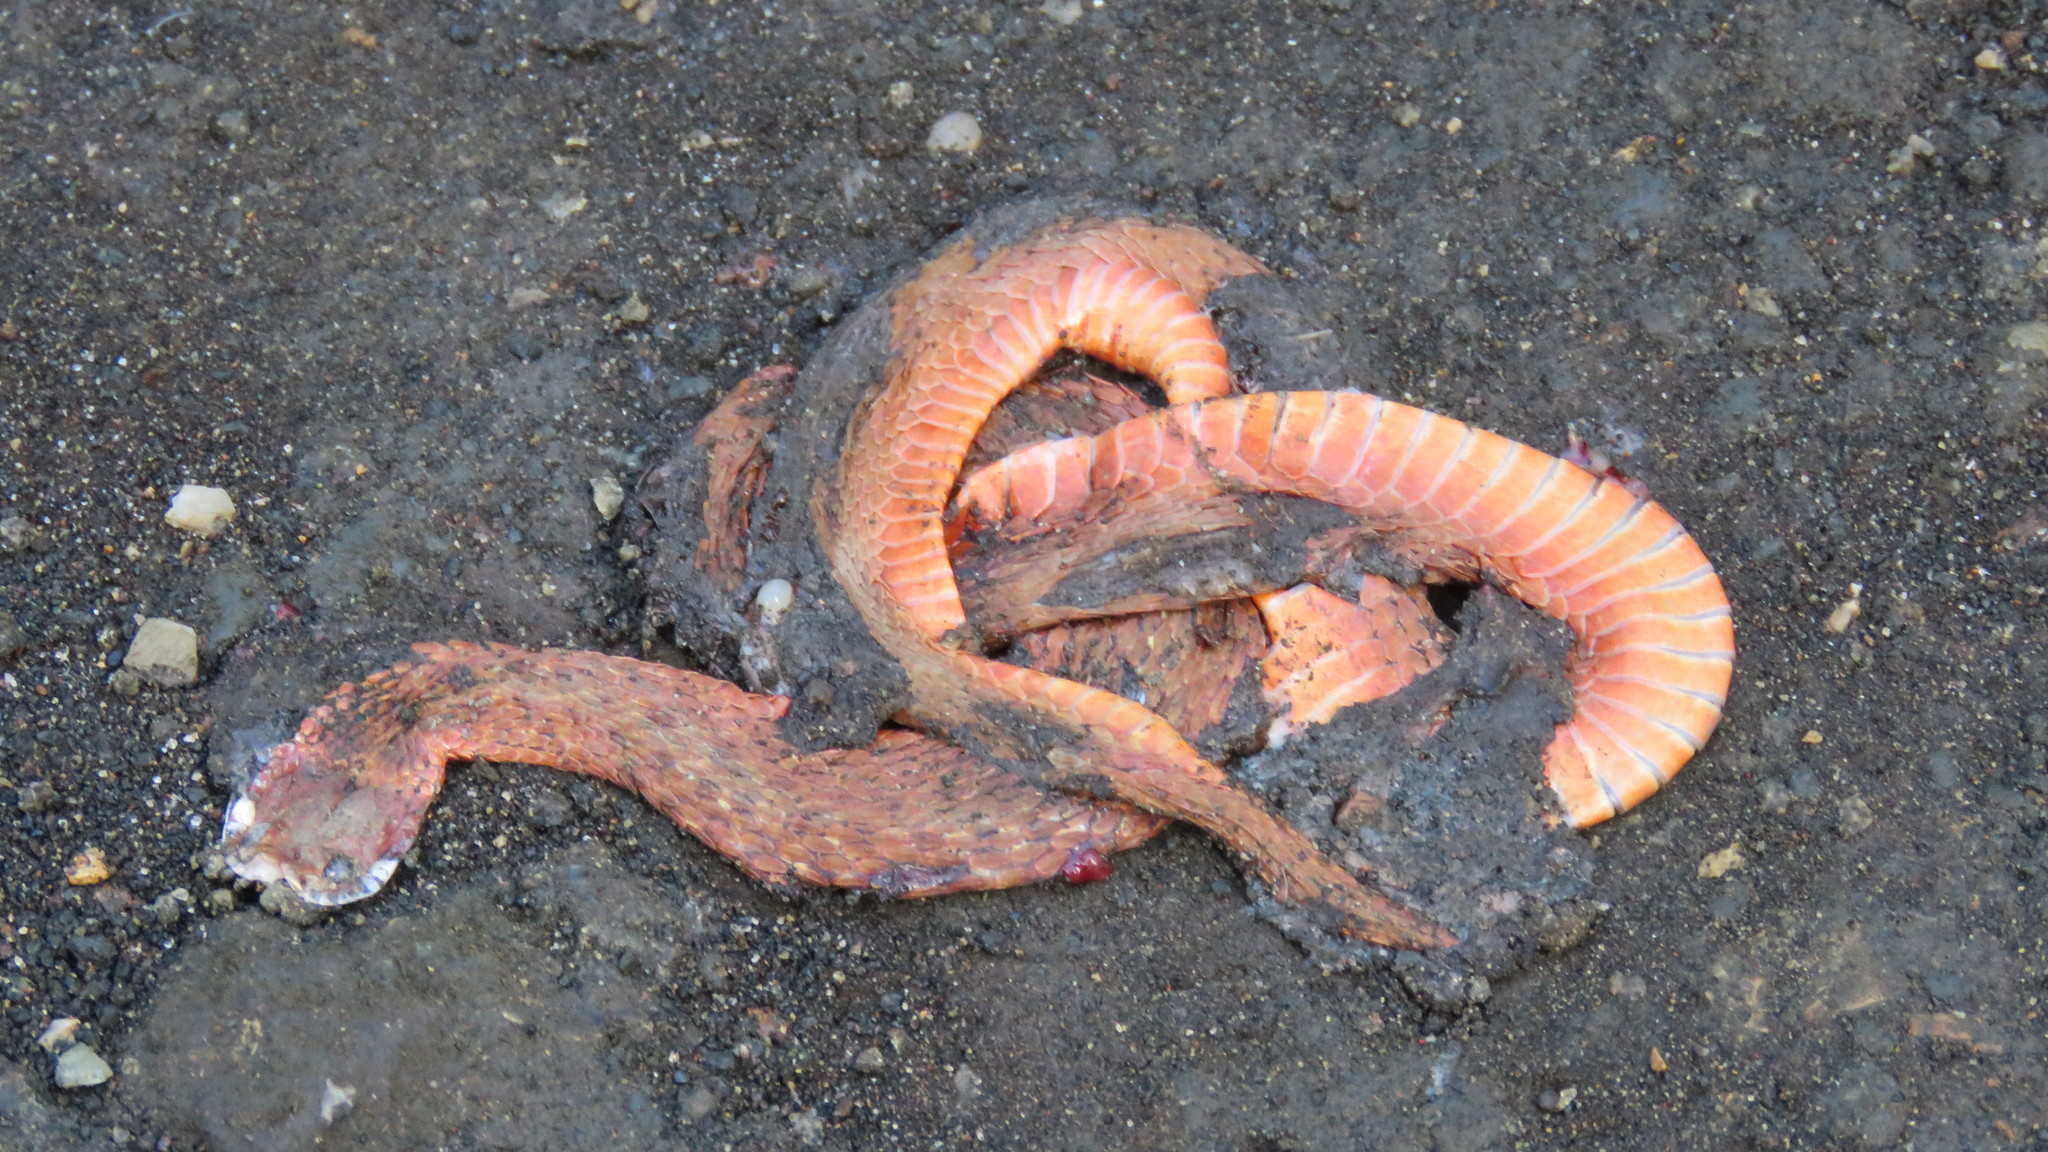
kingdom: Animalia
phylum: Chordata
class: Squamata
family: Colubridae
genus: Storeria
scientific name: Storeria dekayi
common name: (dekay’s) brown snake
